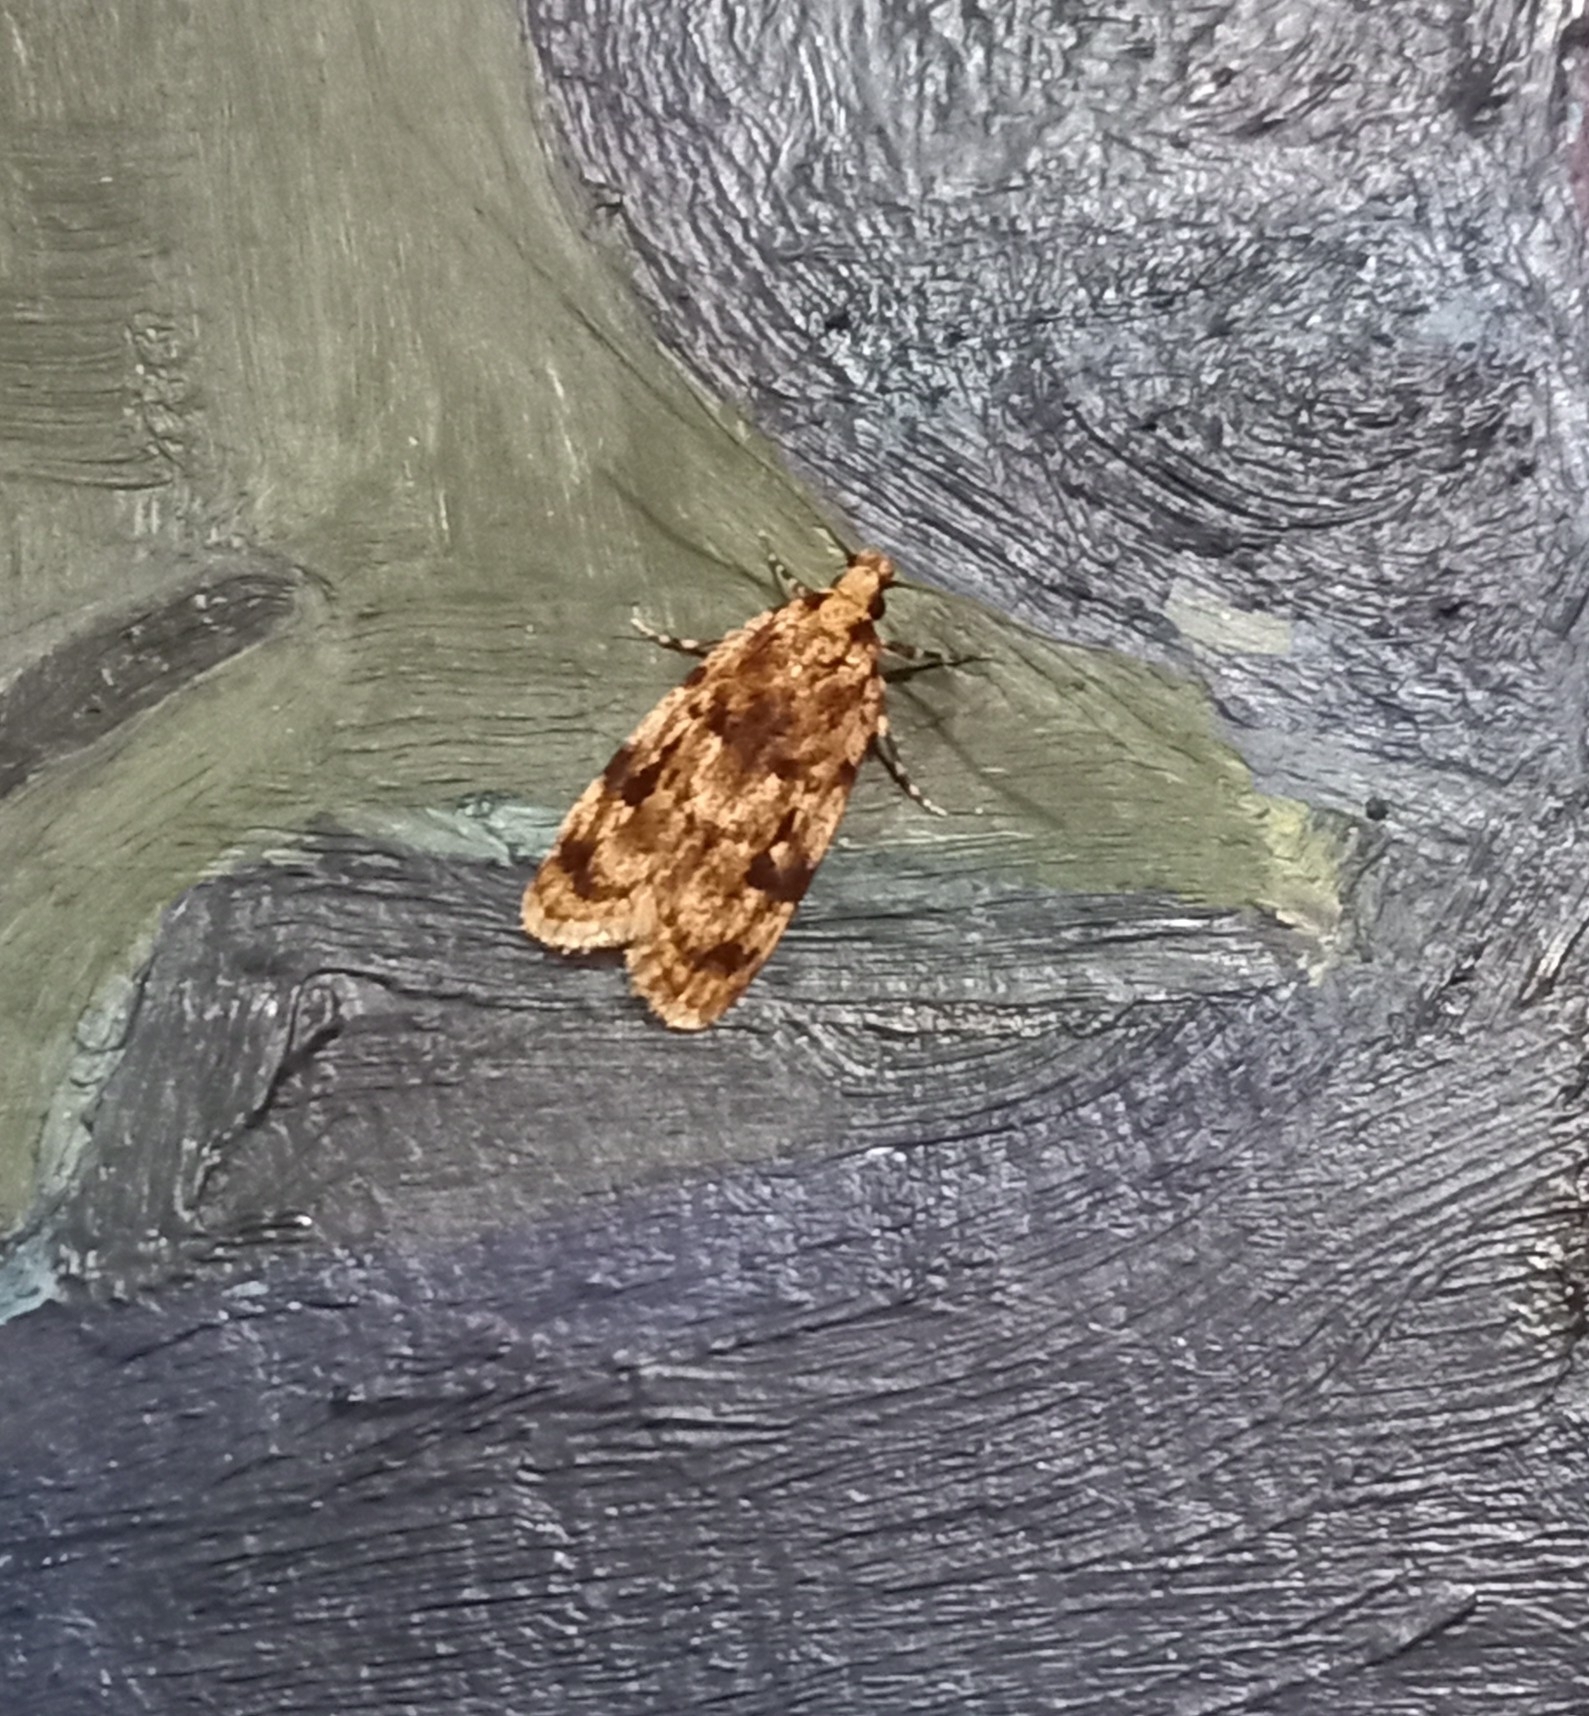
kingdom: Animalia
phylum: Arthropoda
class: Insecta
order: Lepidoptera
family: Oecophoridae
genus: Barea
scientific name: Barea exarcha
